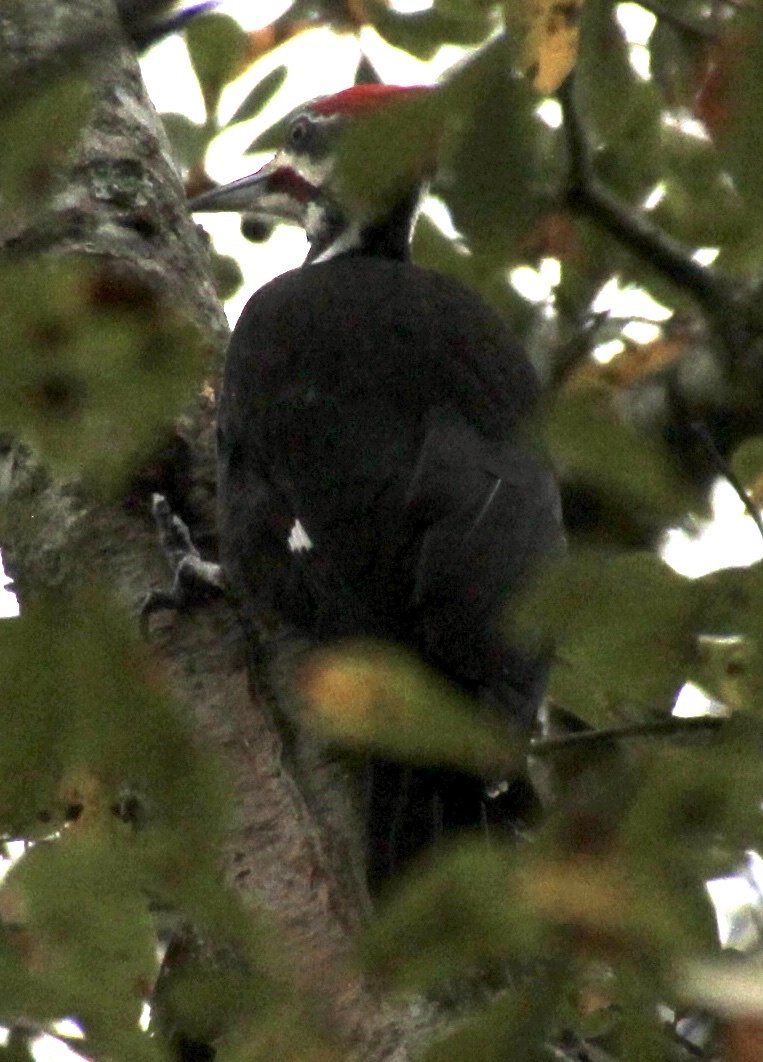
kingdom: Animalia
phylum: Chordata
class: Aves
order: Piciformes
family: Picidae
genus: Dryocopus
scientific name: Dryocopus pileatus
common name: Pileated woodpecker
